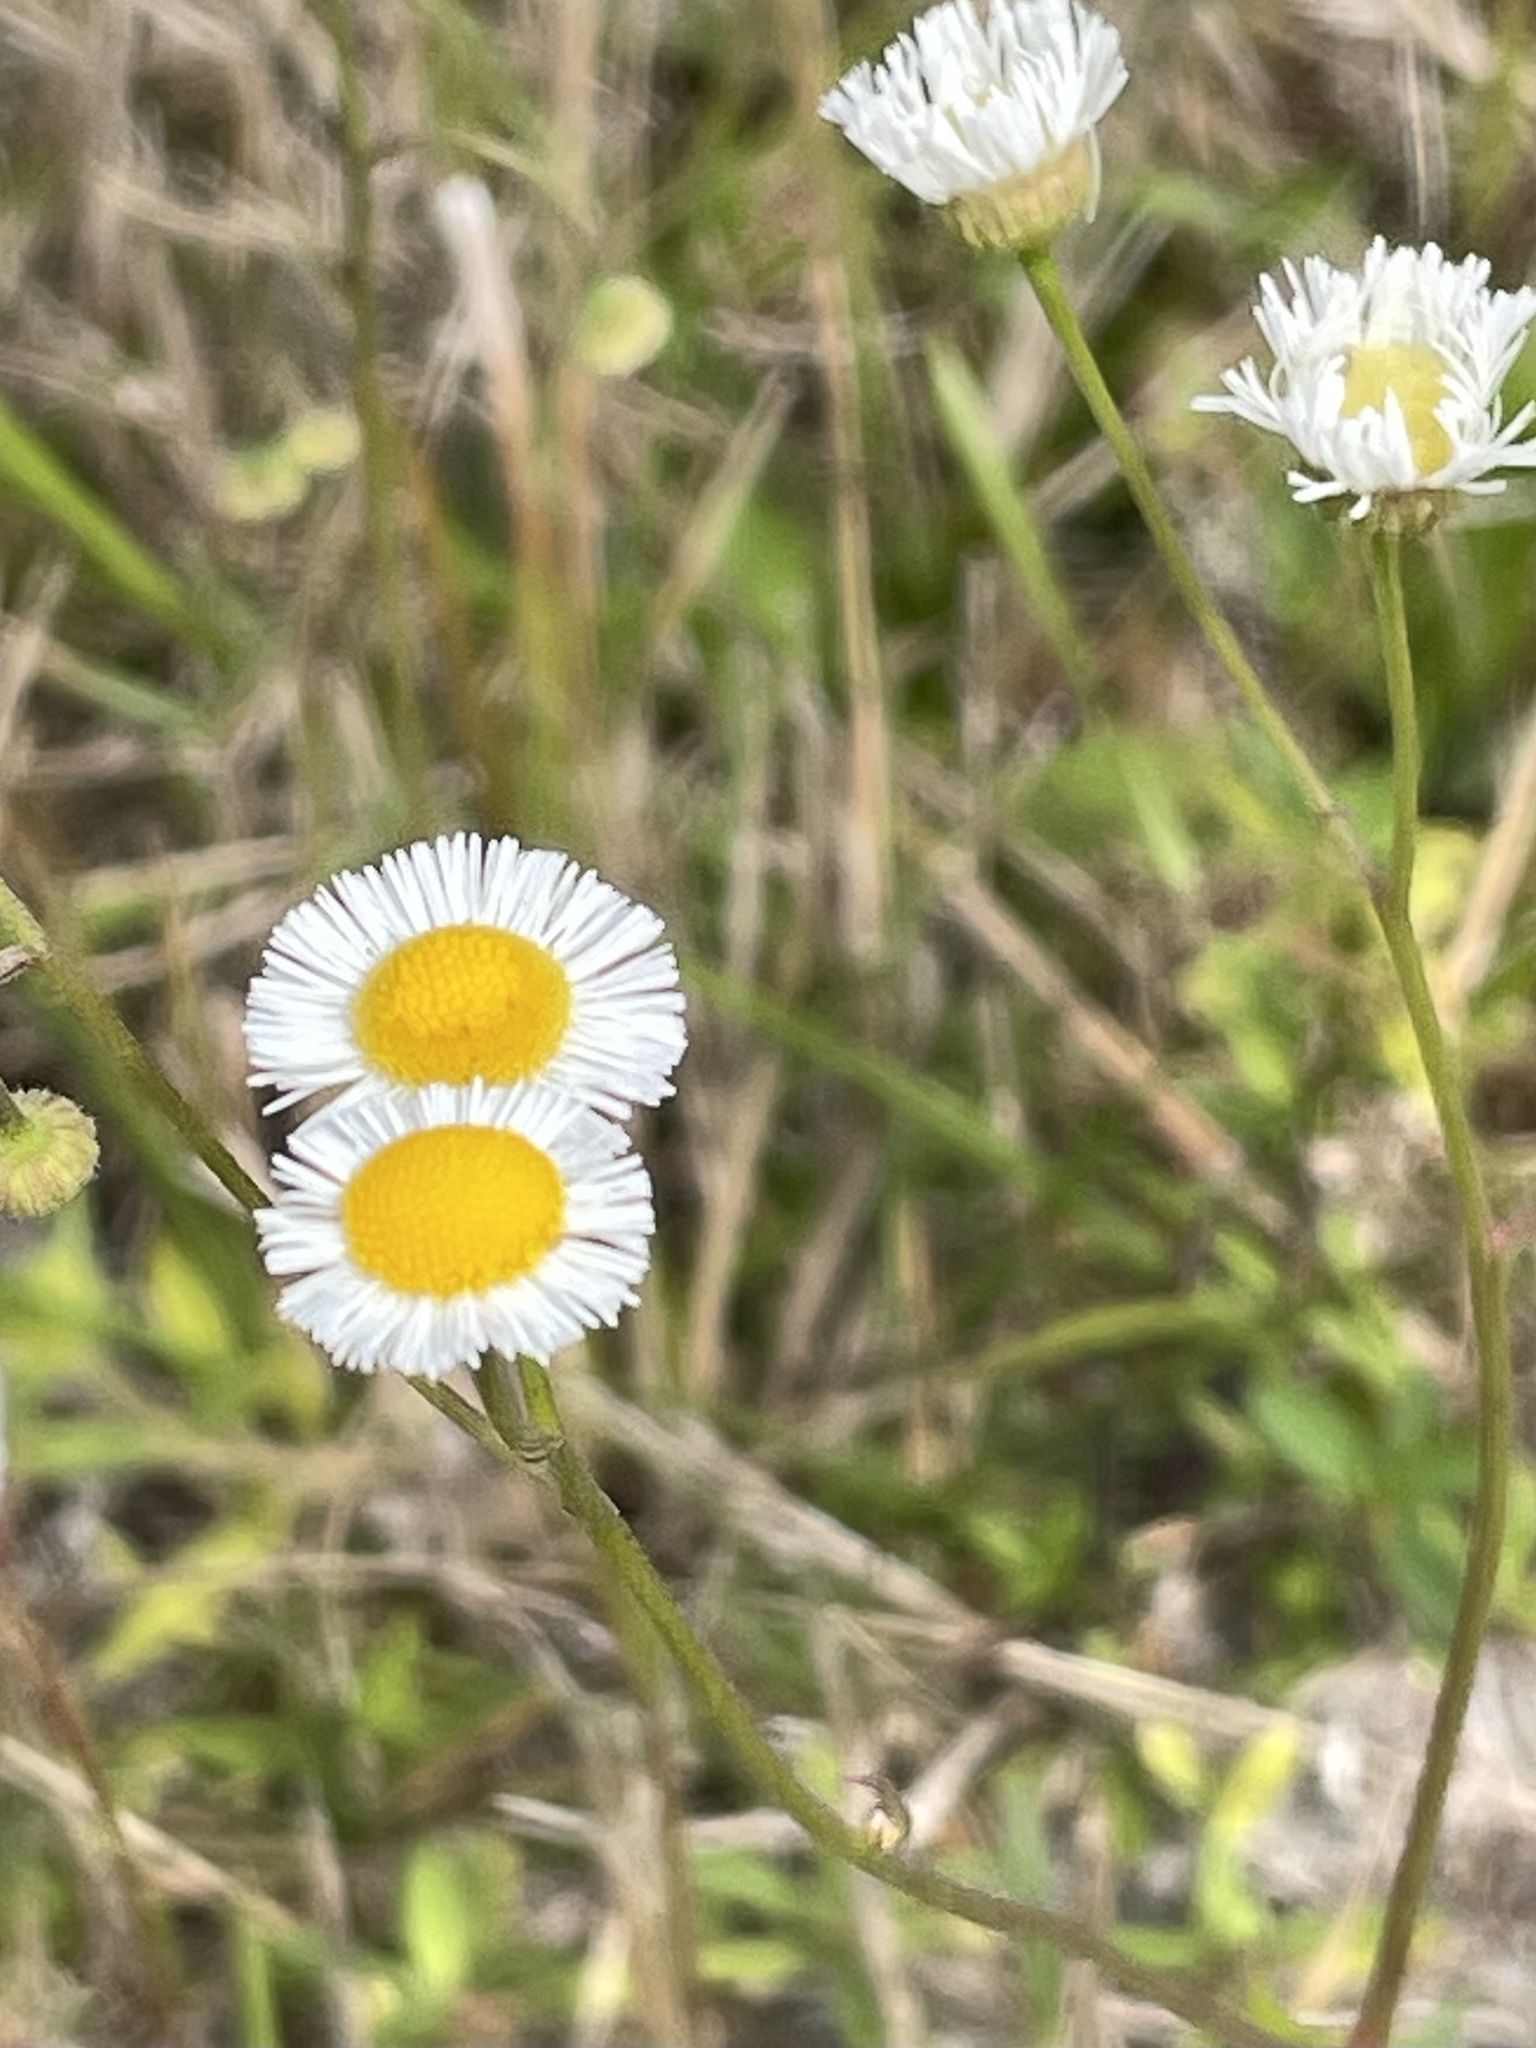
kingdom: Plantae
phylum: Tracheophyta
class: Magnoliopsida
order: Asterales
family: Asteraceae
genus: Erigeron
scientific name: Erigeron quercifolius
